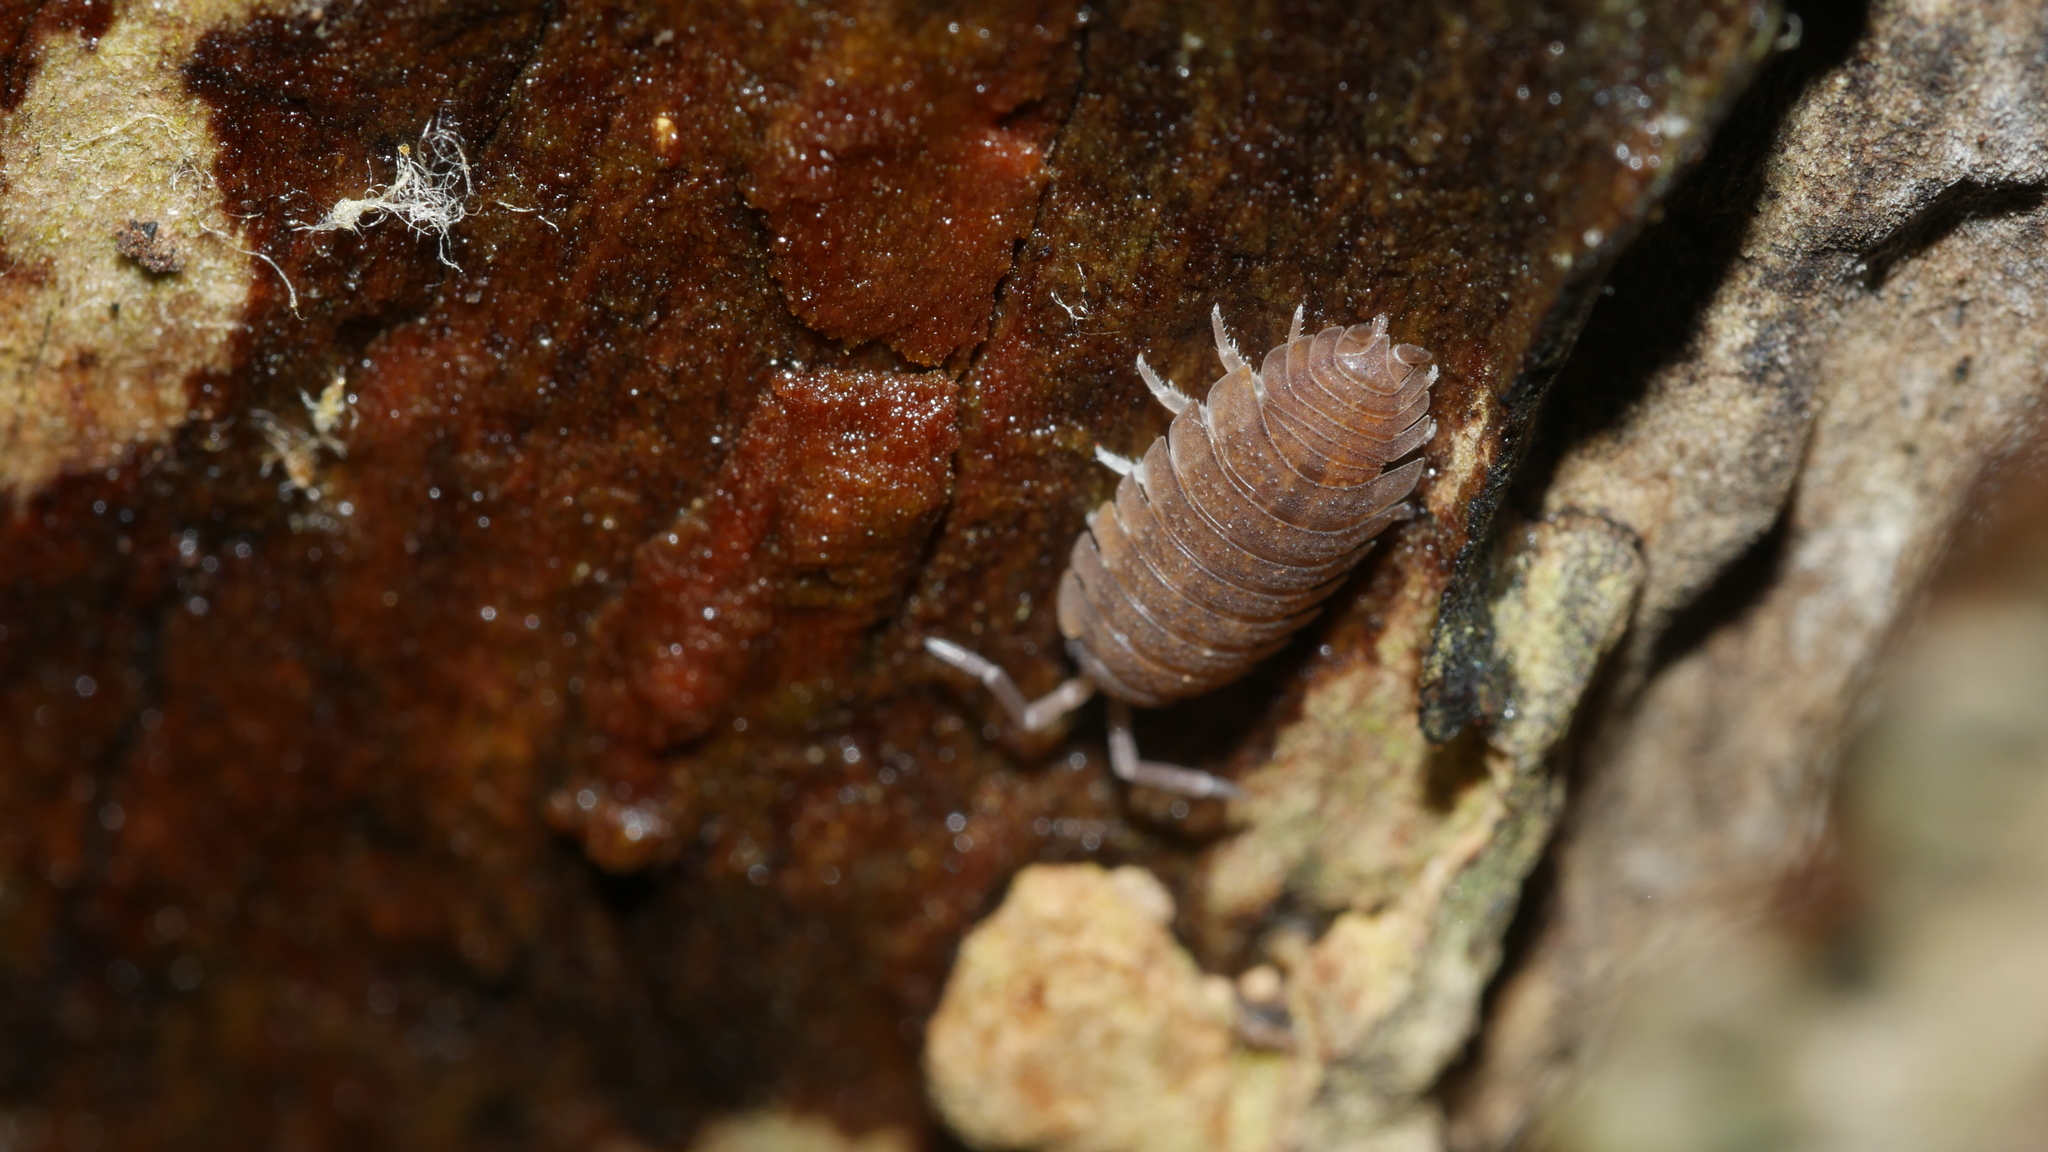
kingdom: Animalia
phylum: Arthropoda
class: Malacostraca
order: Isopoda
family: Porcellionidae
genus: Porcellio
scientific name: Porcellio scaber
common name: Common rough woodlouse
